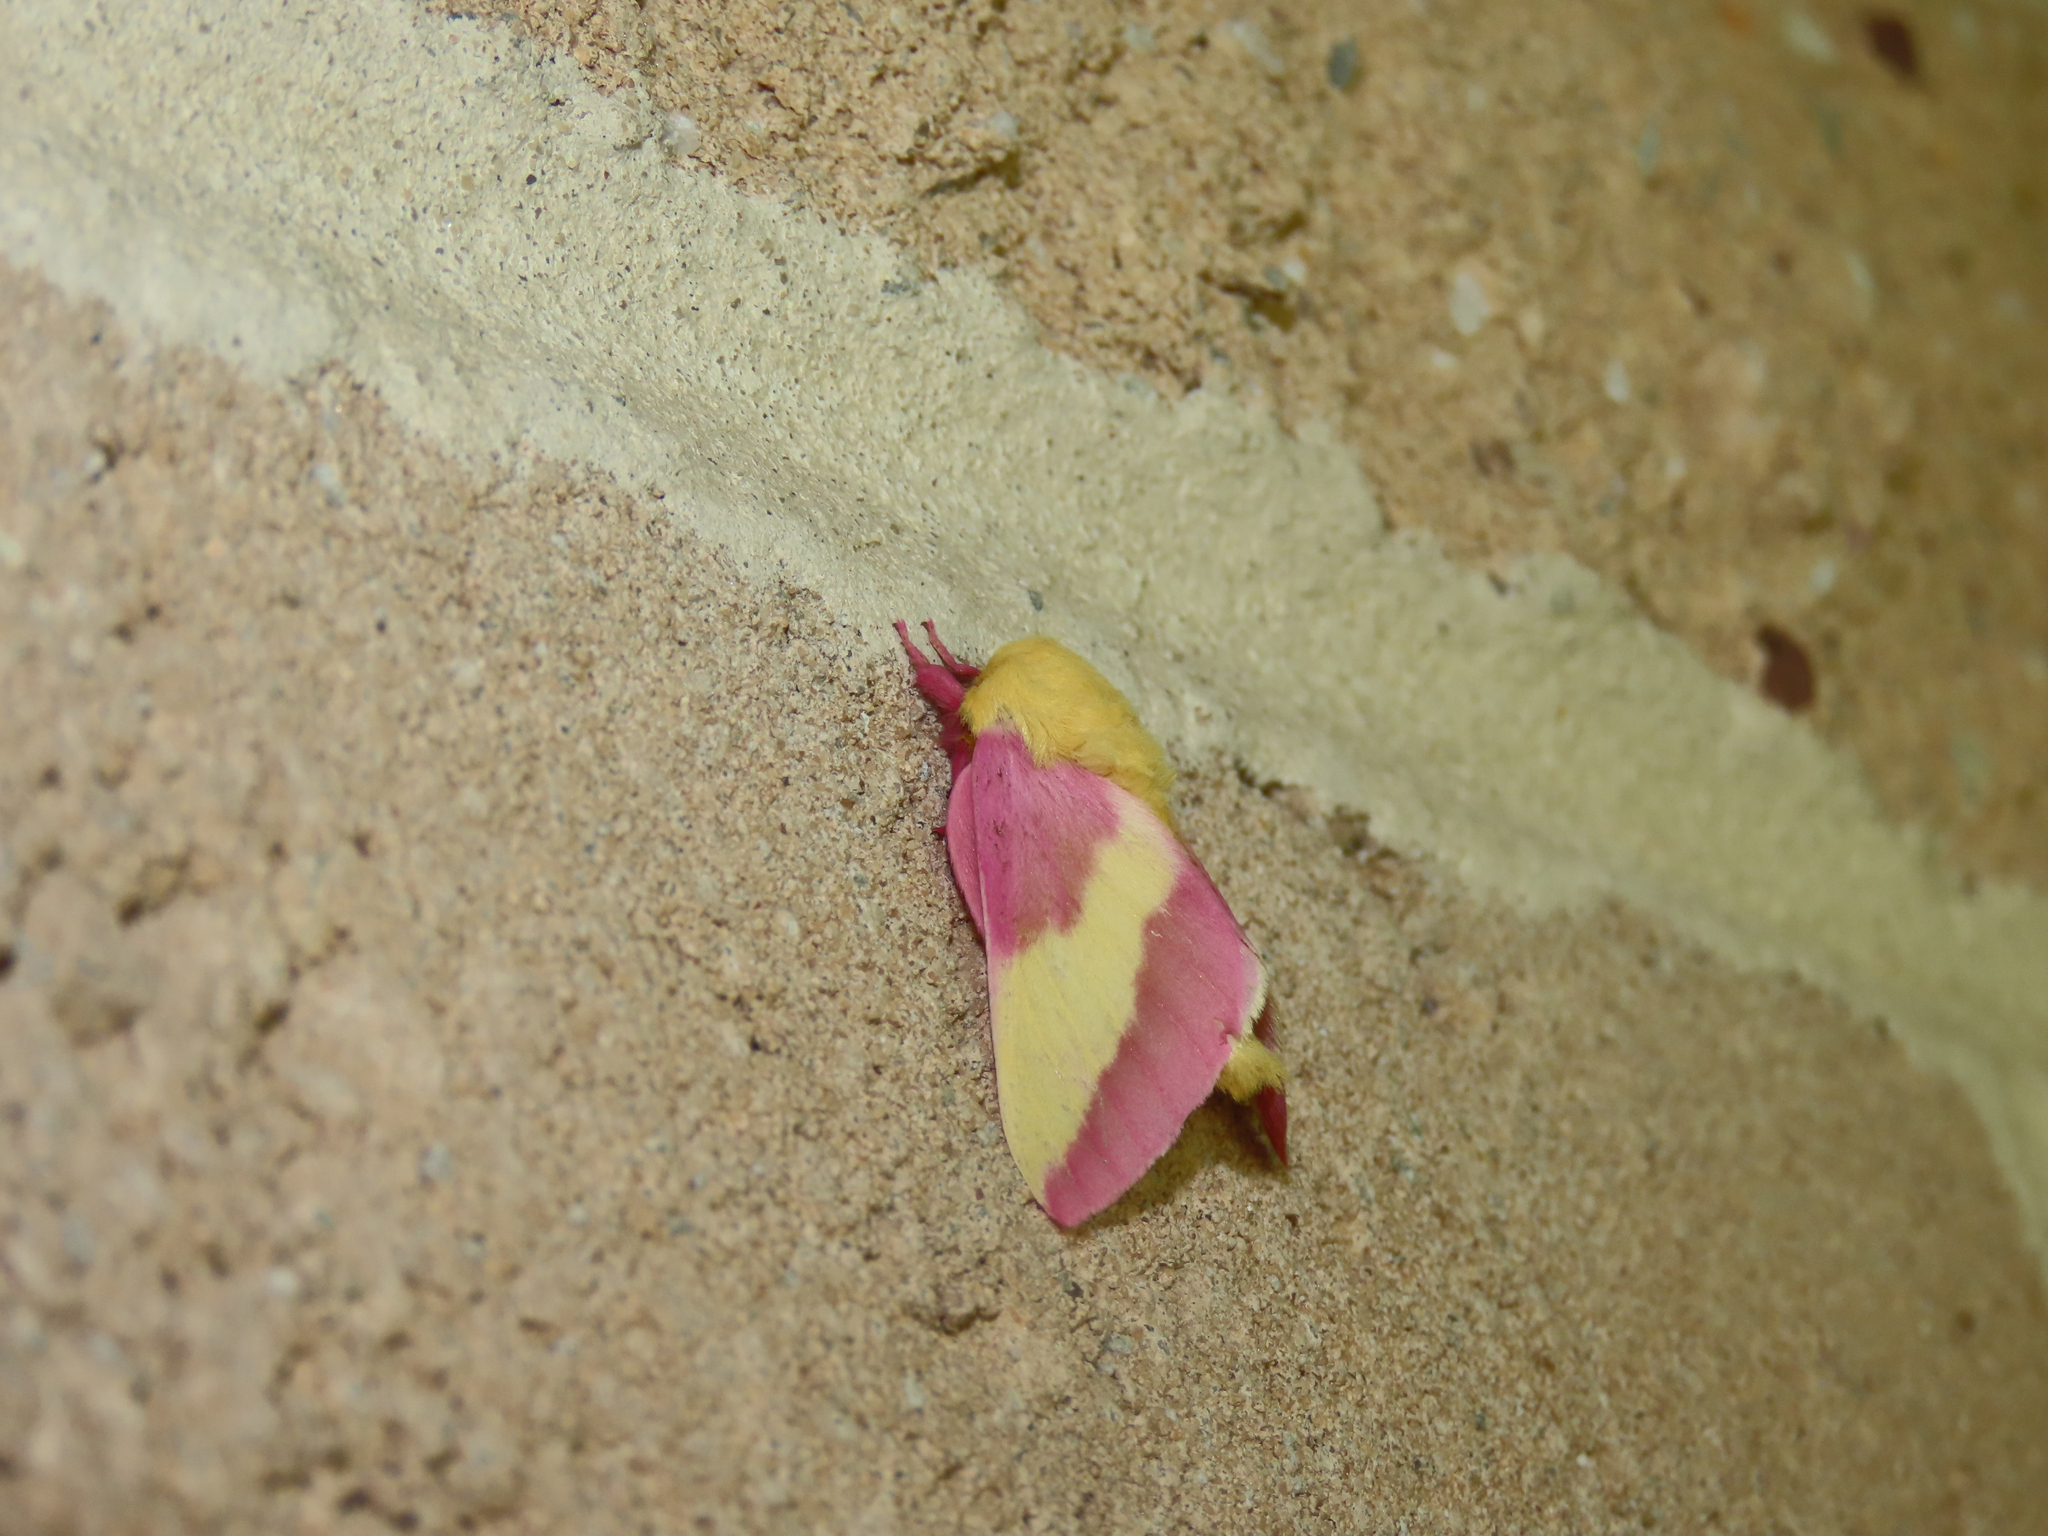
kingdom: Animalia
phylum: Arthropoda
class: Insecta
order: Lepidoptera
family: Saturniidae
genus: Dryocampa
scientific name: Dryocampa rubicunda
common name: Rosy maple moth
